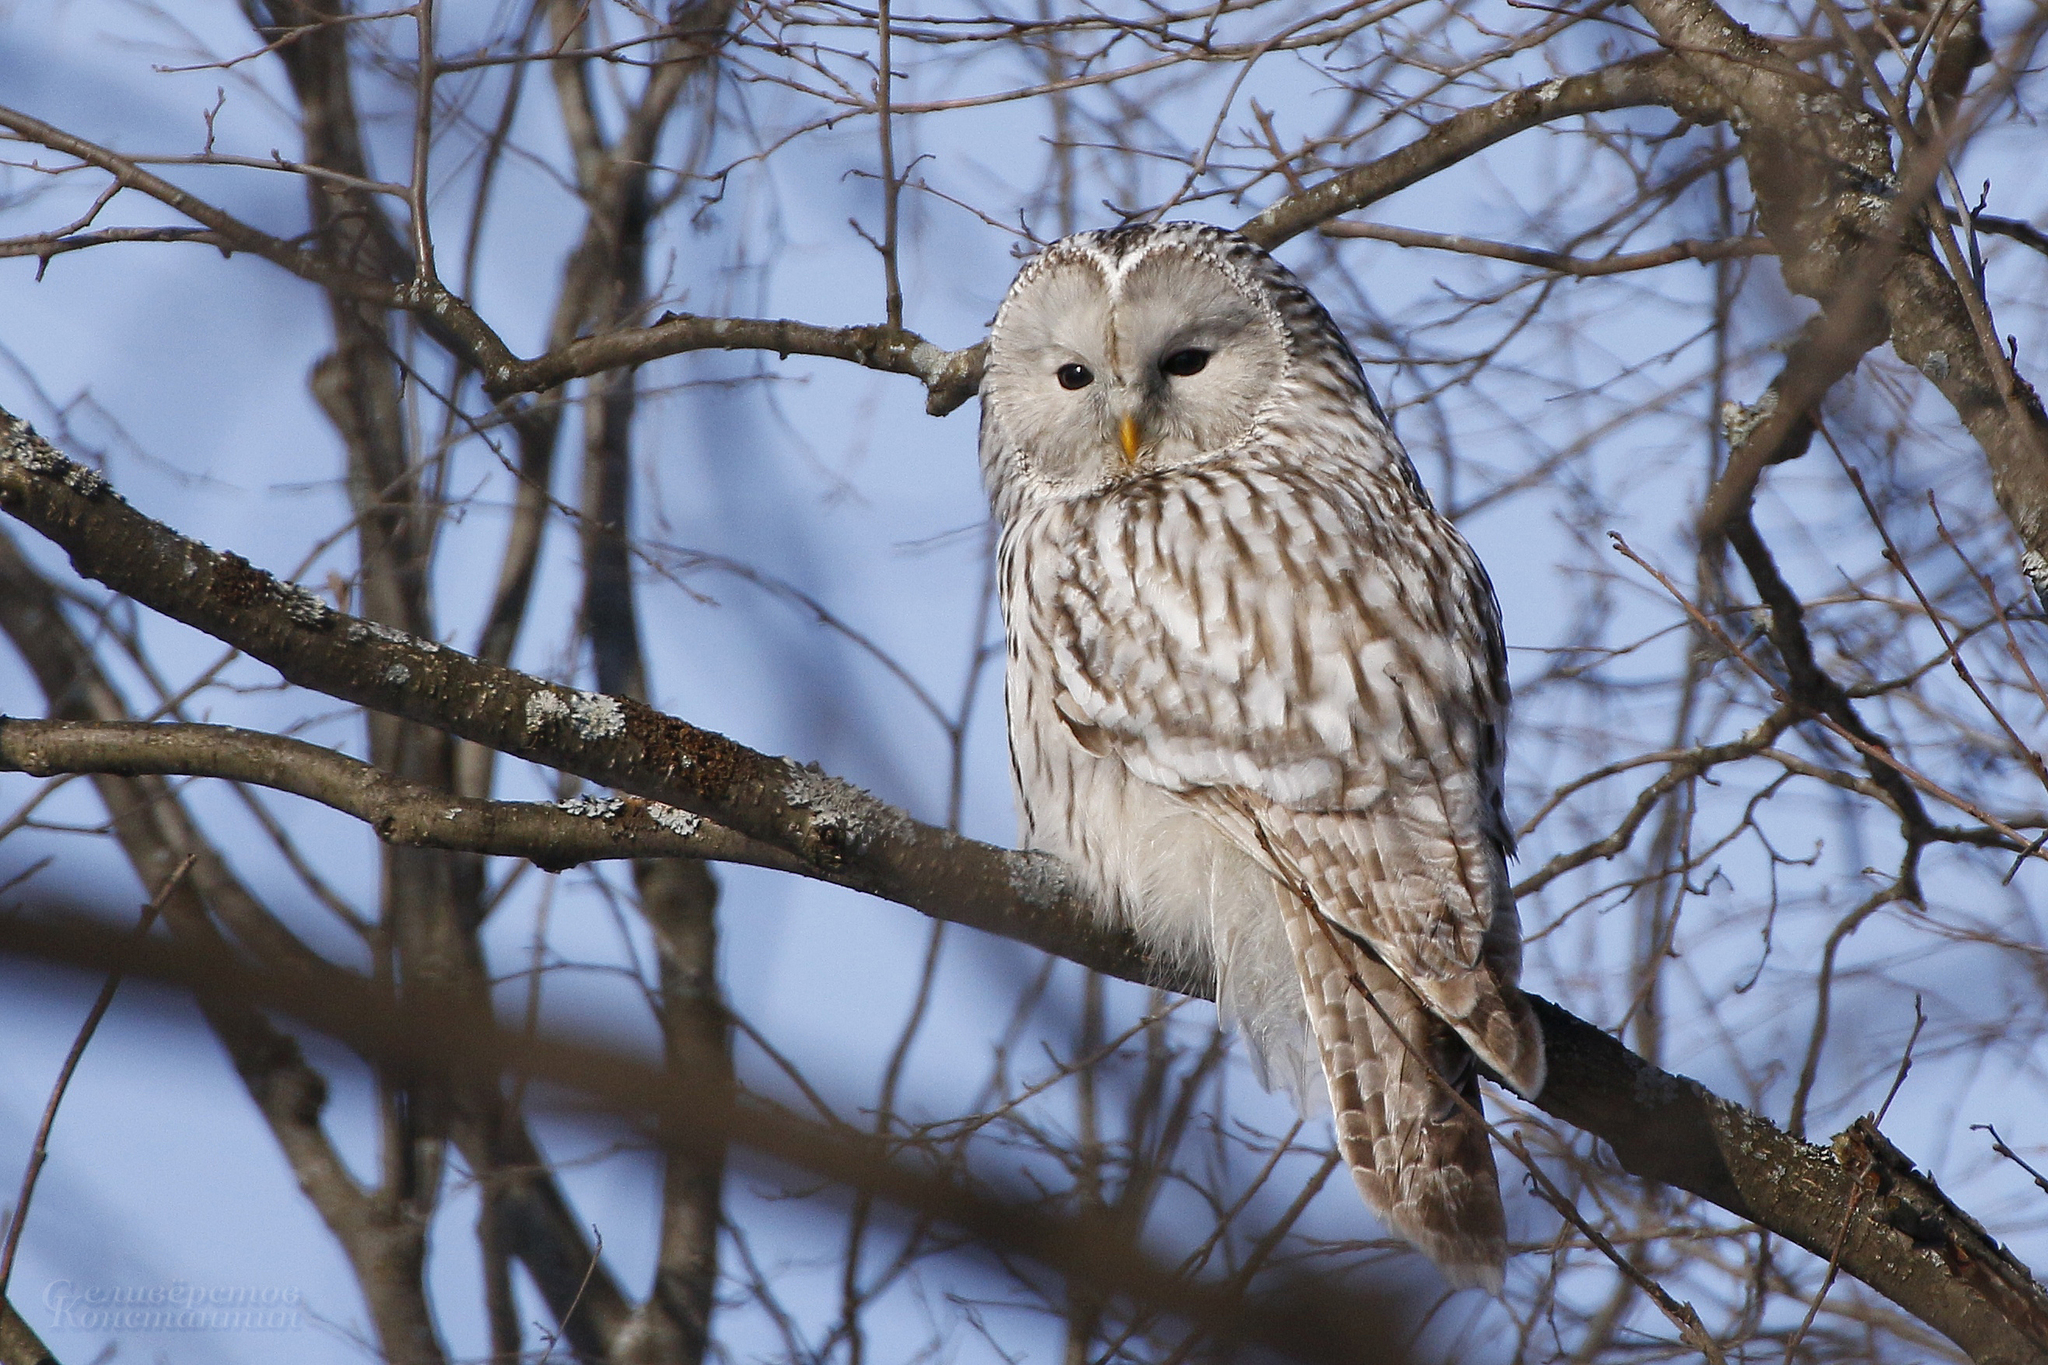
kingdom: Animalia
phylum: Chordata
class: Aves
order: Strigiformes
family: Strigidae
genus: Strix
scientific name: Strix uralensis
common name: Ural owl
